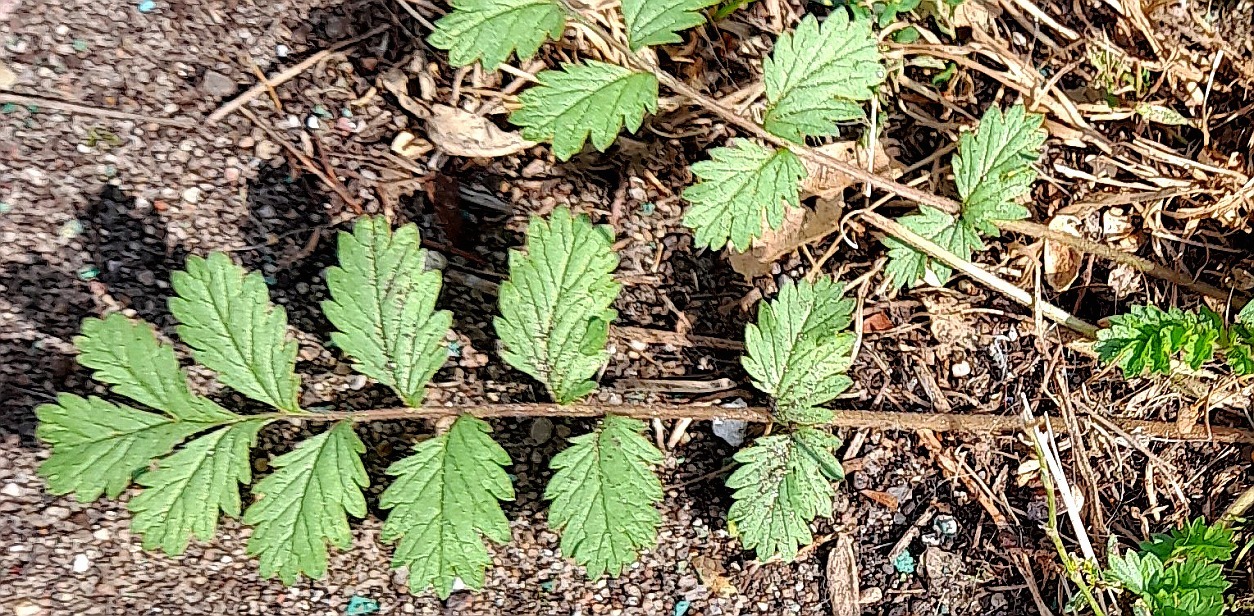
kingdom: Plantae
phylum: Tracheophyta
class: Magnoliopsida
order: Rosales
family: Rosaceae
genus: Potentilla
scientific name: Potentilla supina
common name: Prostrate cinquefoil
